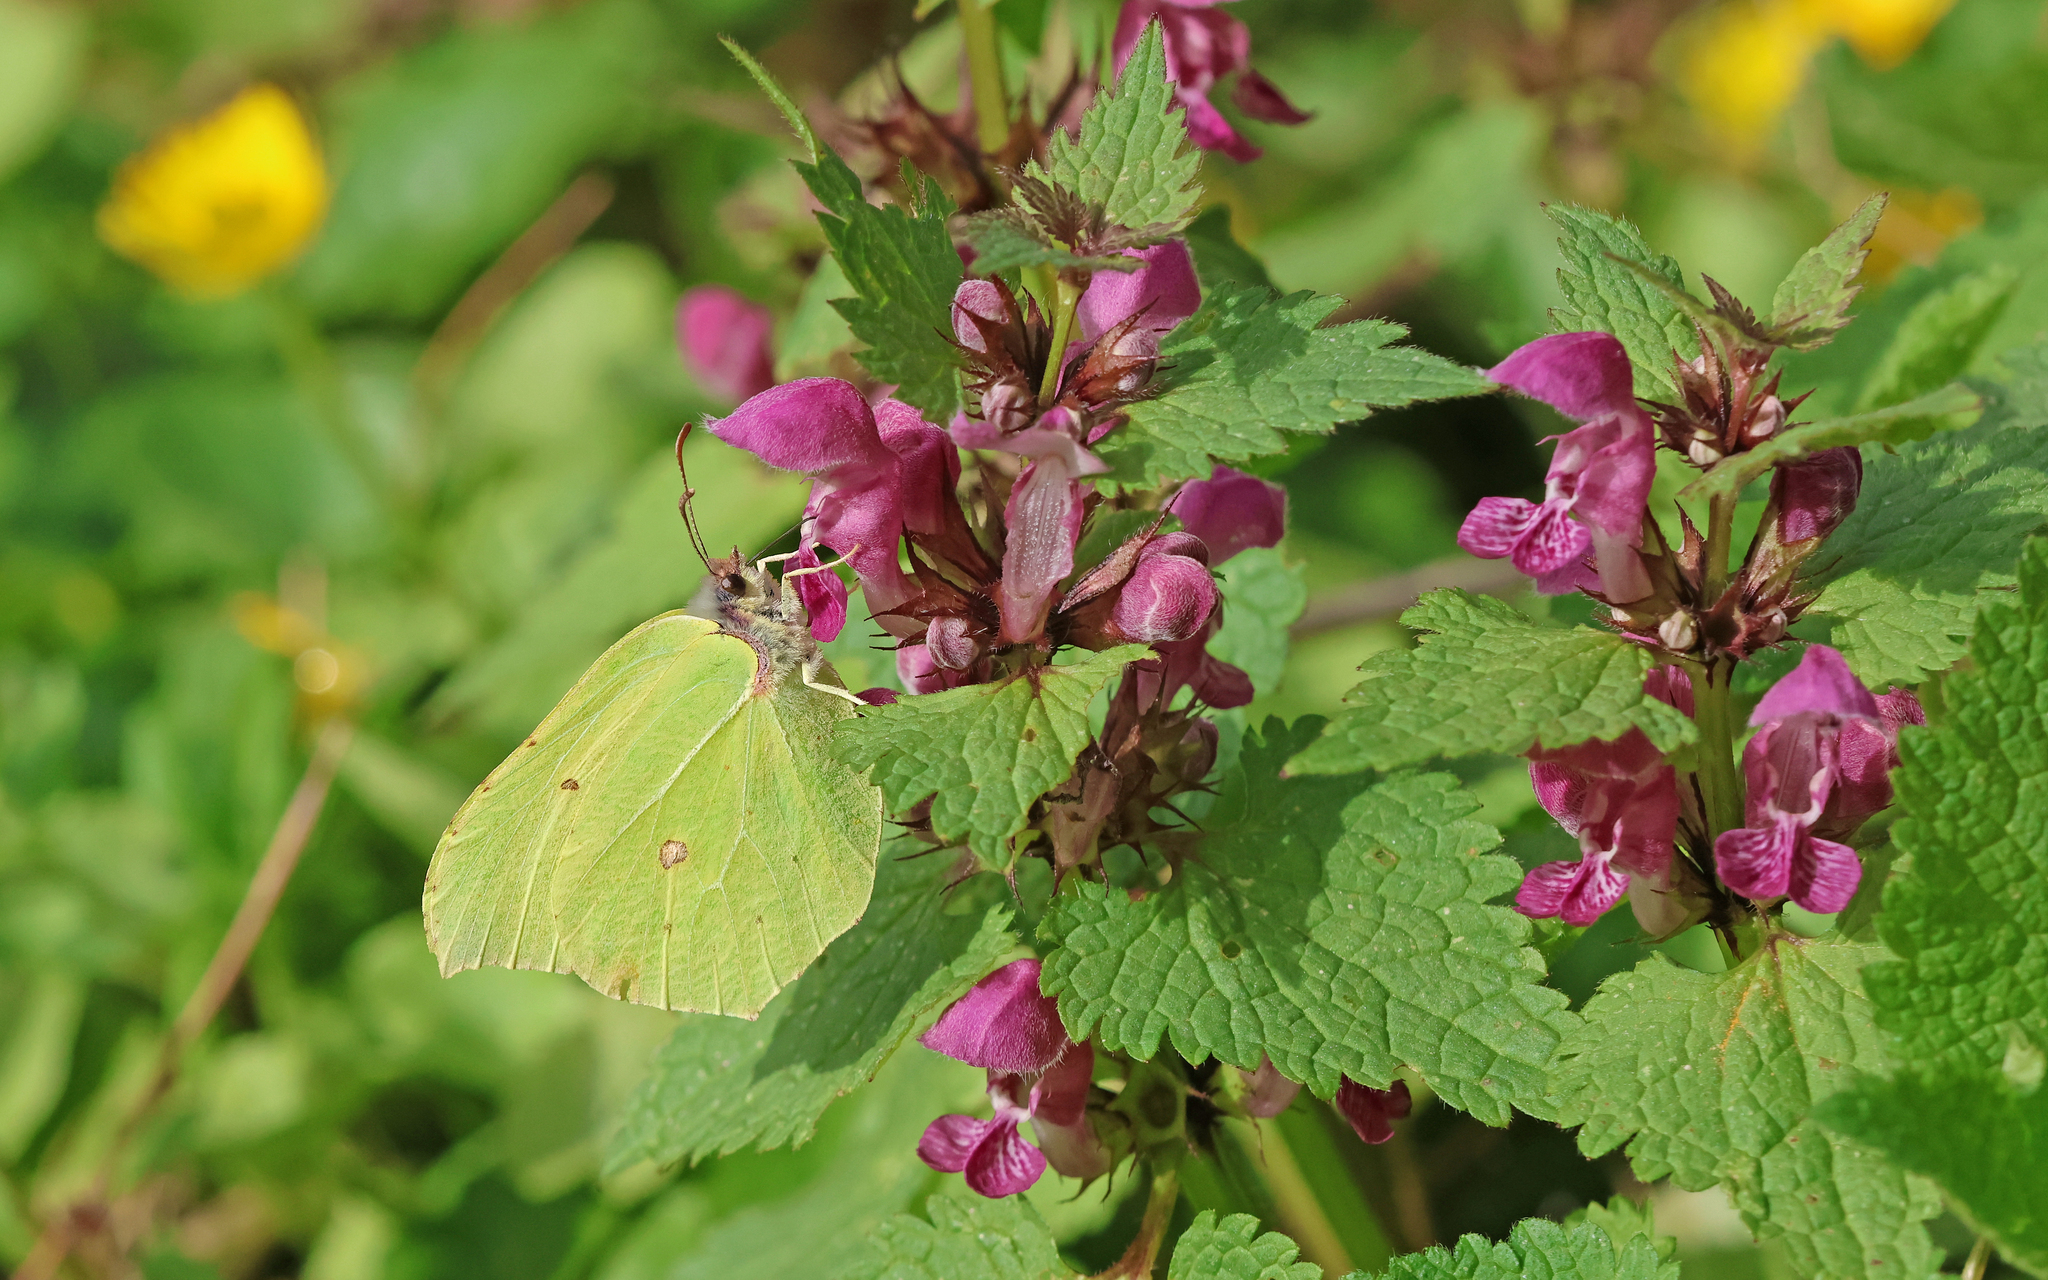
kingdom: Animalia
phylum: Arthropoda
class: Insecta
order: Lepidoptera
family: Pieridae
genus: Gonepteryx
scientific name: Gonepteryx rhamni
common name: Brimstone
